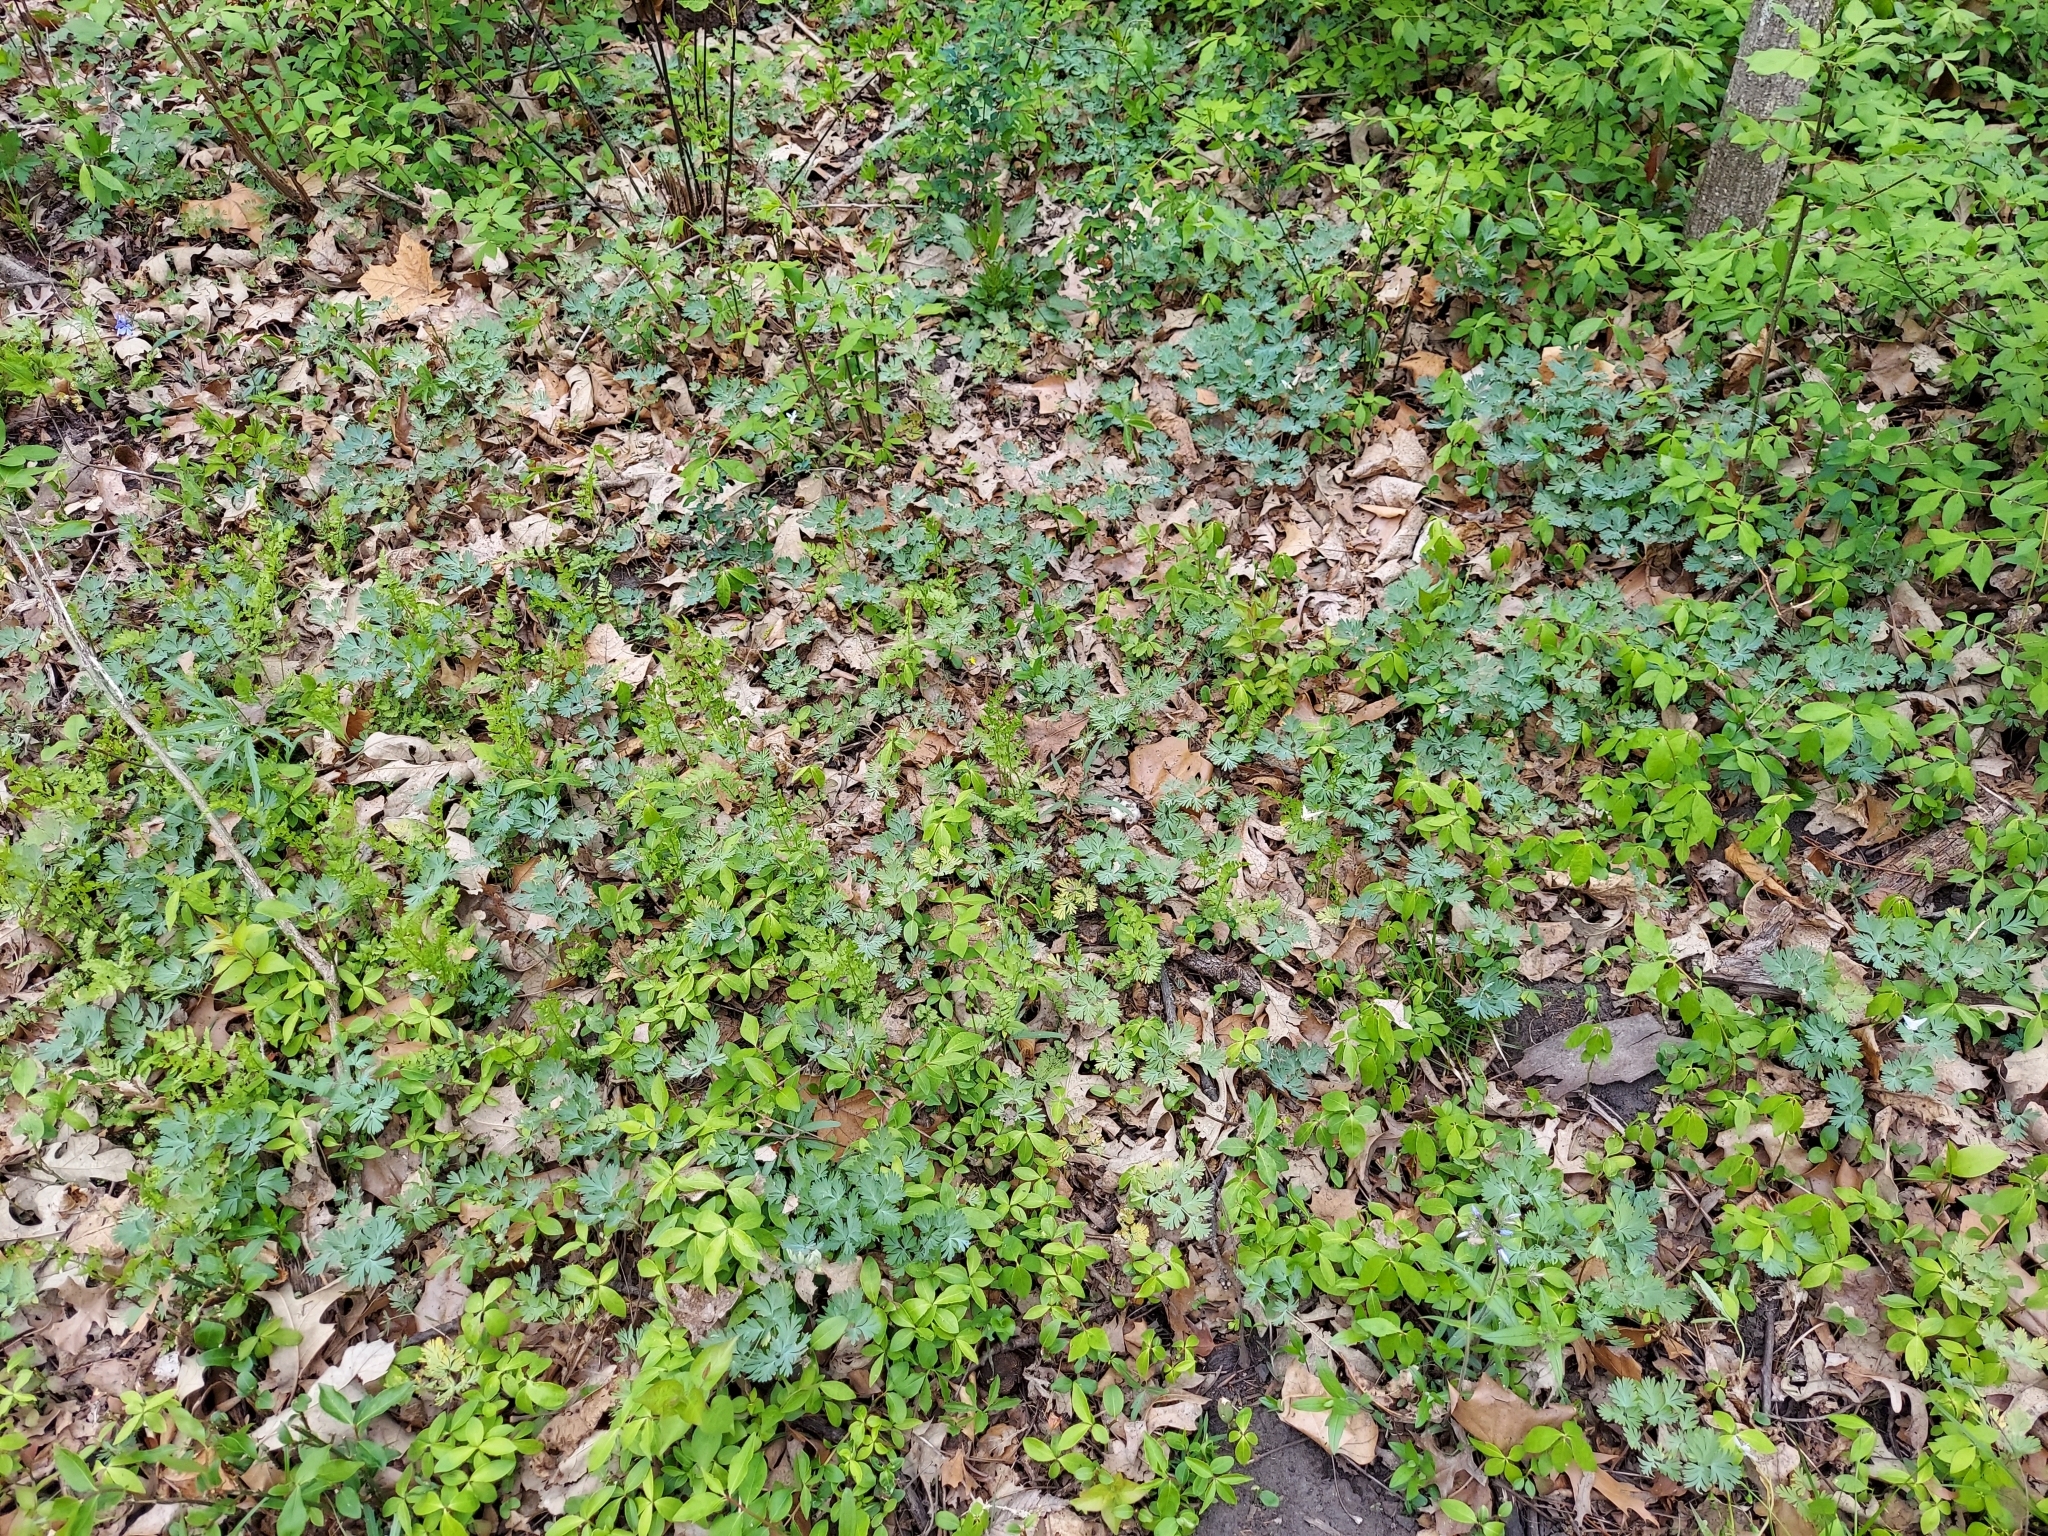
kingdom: Plantae
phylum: Tracheophyta
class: Magnoliopsida
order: Ranunculales
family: Papaveraceae
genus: Dicentra
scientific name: Dicentra cucullaria
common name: Dutchman's breeches
